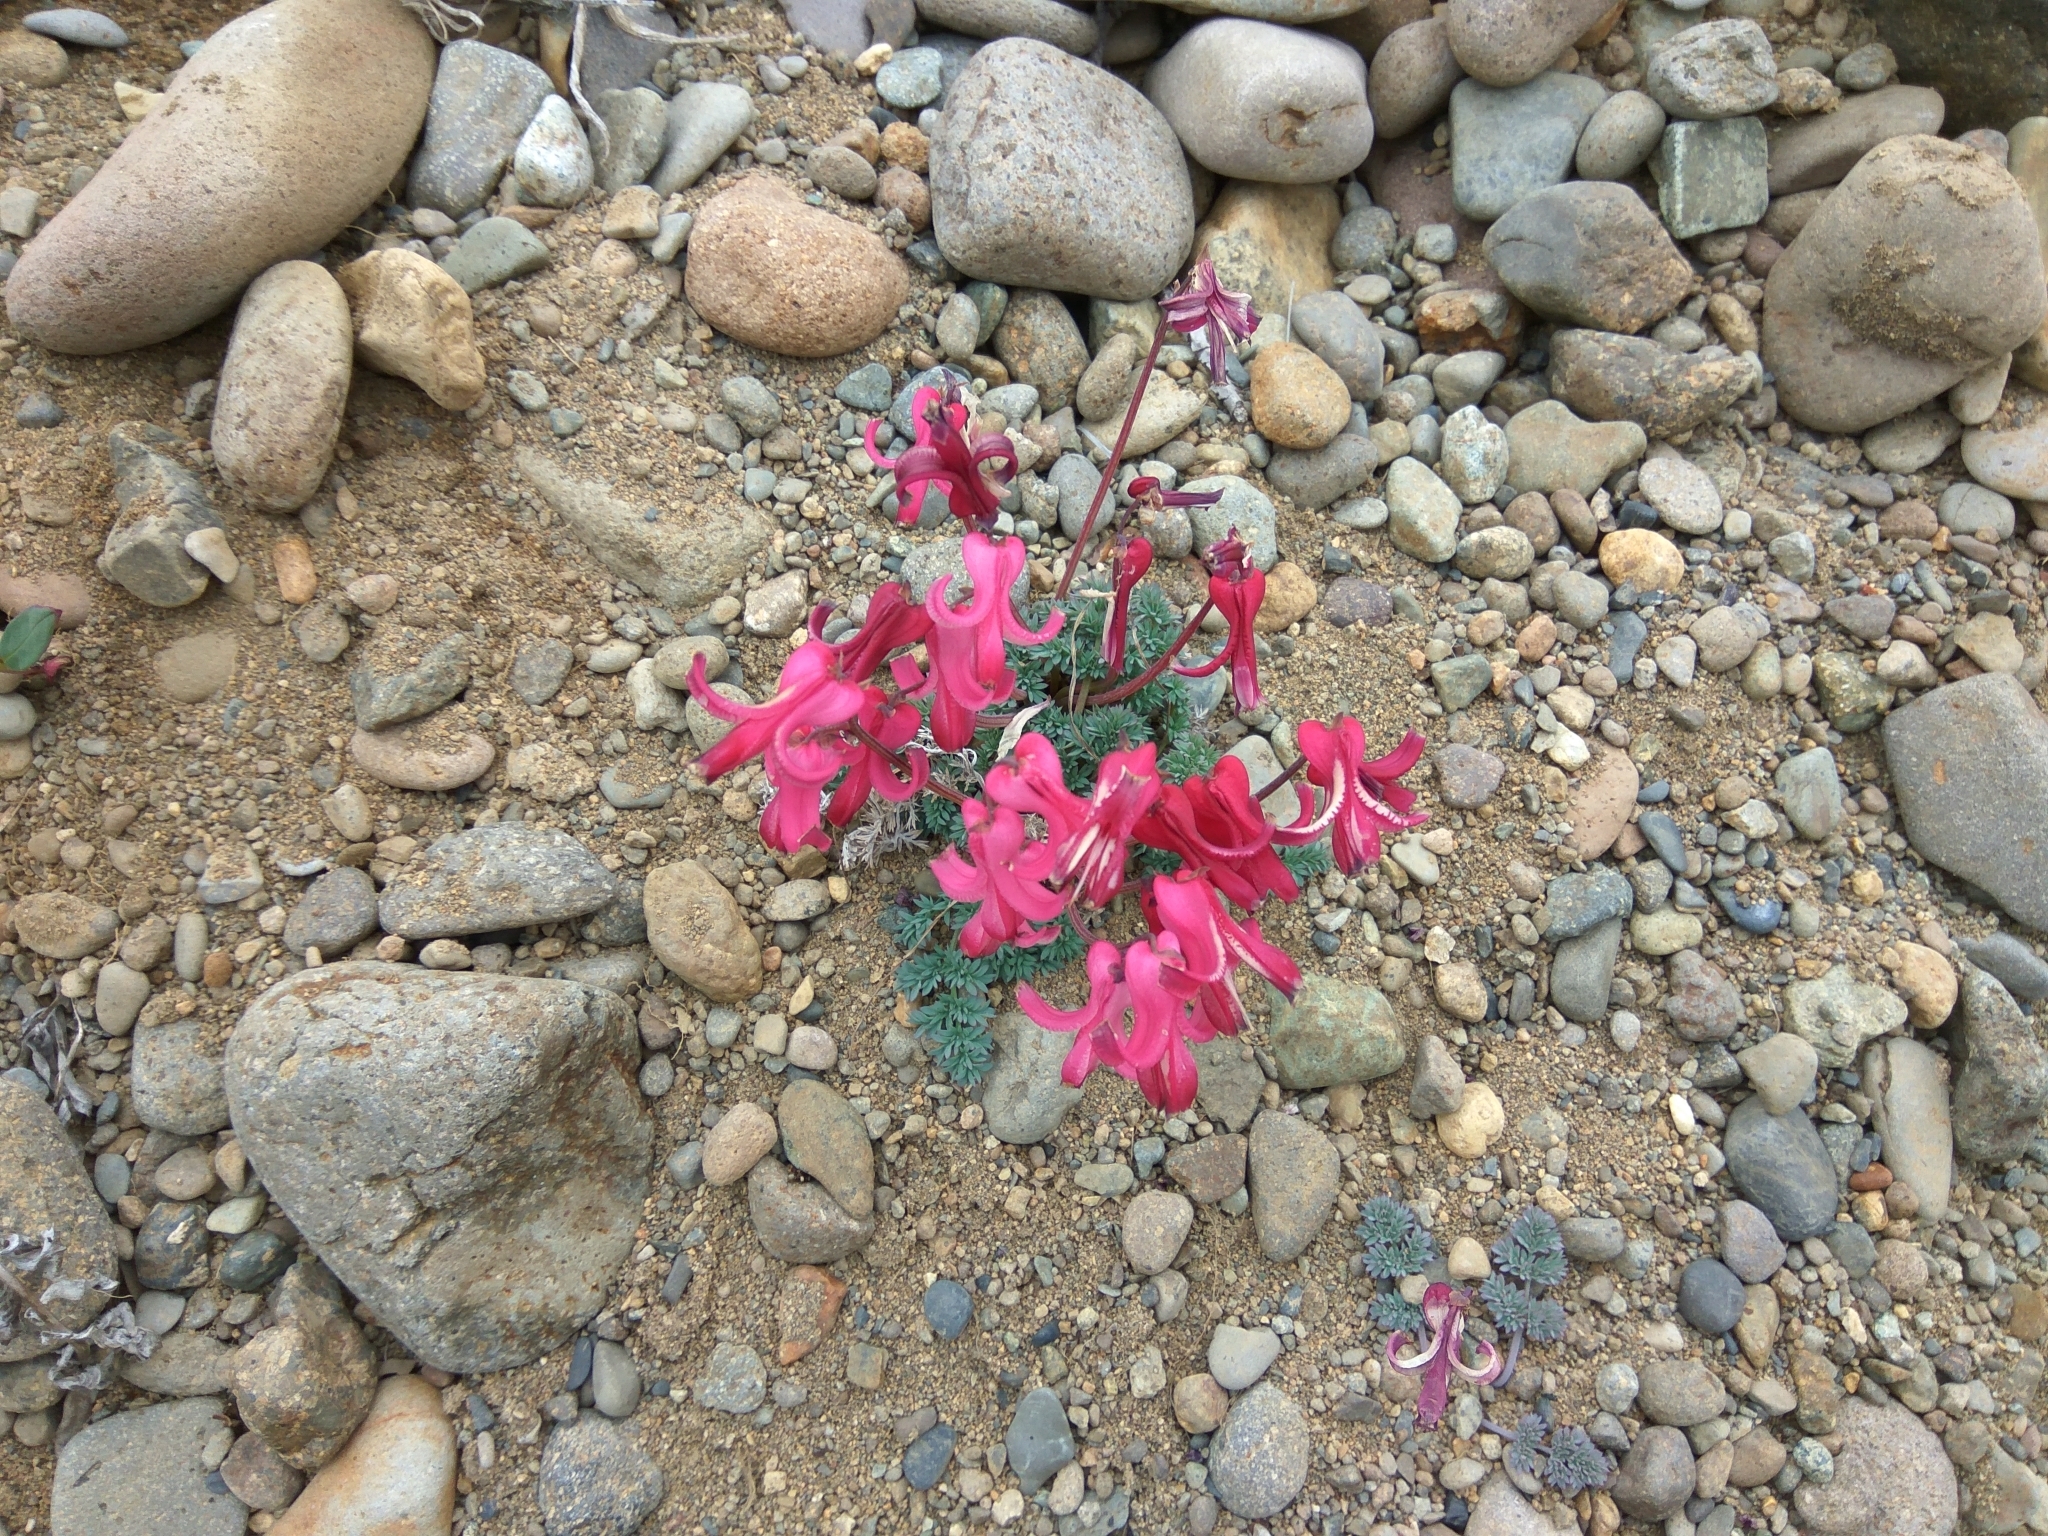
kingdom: Plantae
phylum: Tracheophyta
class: Magnoliopsida
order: Ranunculales
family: Papaveraceae
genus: Dicentra
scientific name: Dicentra peregrina
